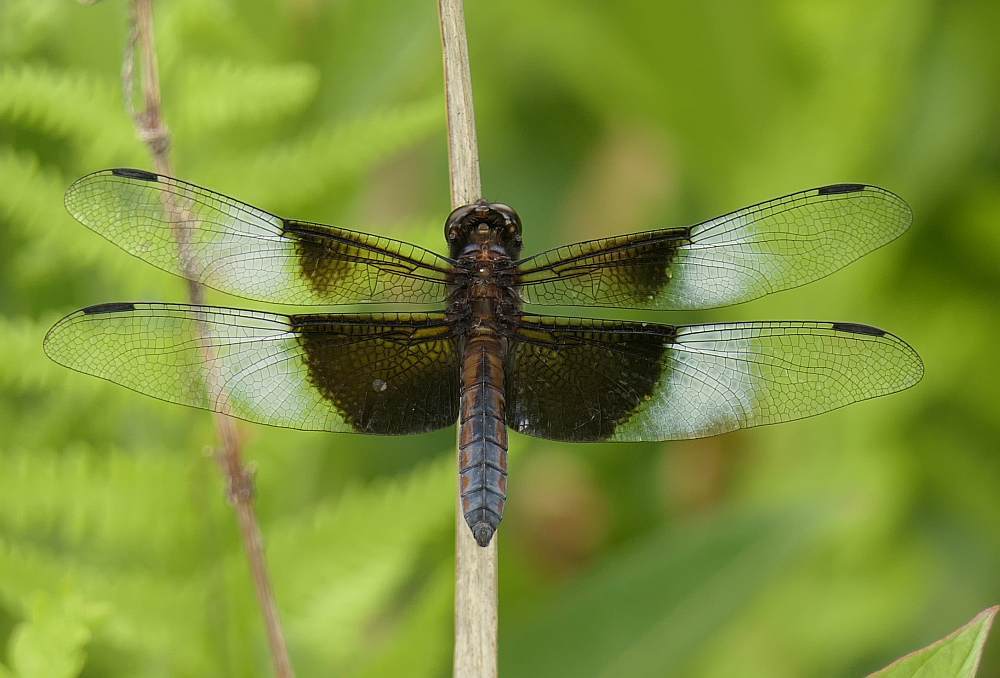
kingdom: Animalia
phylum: Arthropoda
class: Insecta
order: Odonata
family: Libellulidae
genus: Libellula
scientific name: Libellula luctuosa
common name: Widow skimmer
